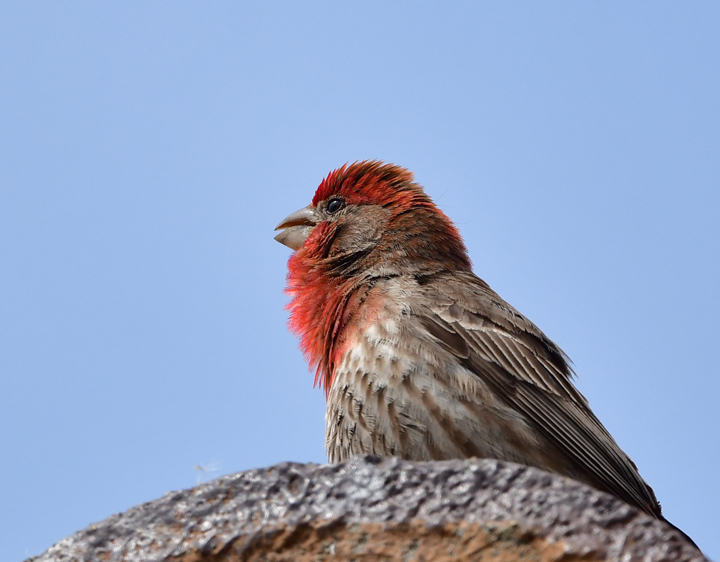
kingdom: Animalia
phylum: Chordata
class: Aves
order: Passeriformes
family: Fringillidae
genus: Haemorhous
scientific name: Haemorhous mexicanus
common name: House finch
